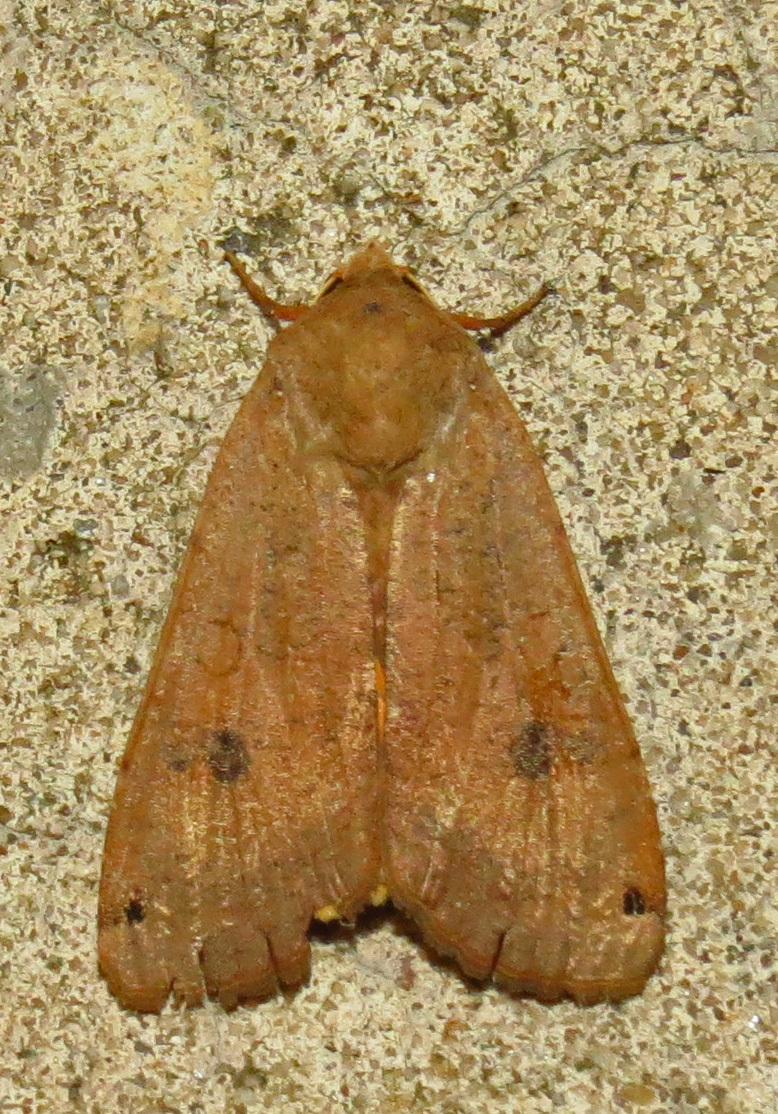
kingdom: Animalia
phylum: Arthropoda
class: Insecta
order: Lepidoptera
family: Noctuidae
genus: Noctua
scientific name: Noctua pronuba
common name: Large yellow underwing
